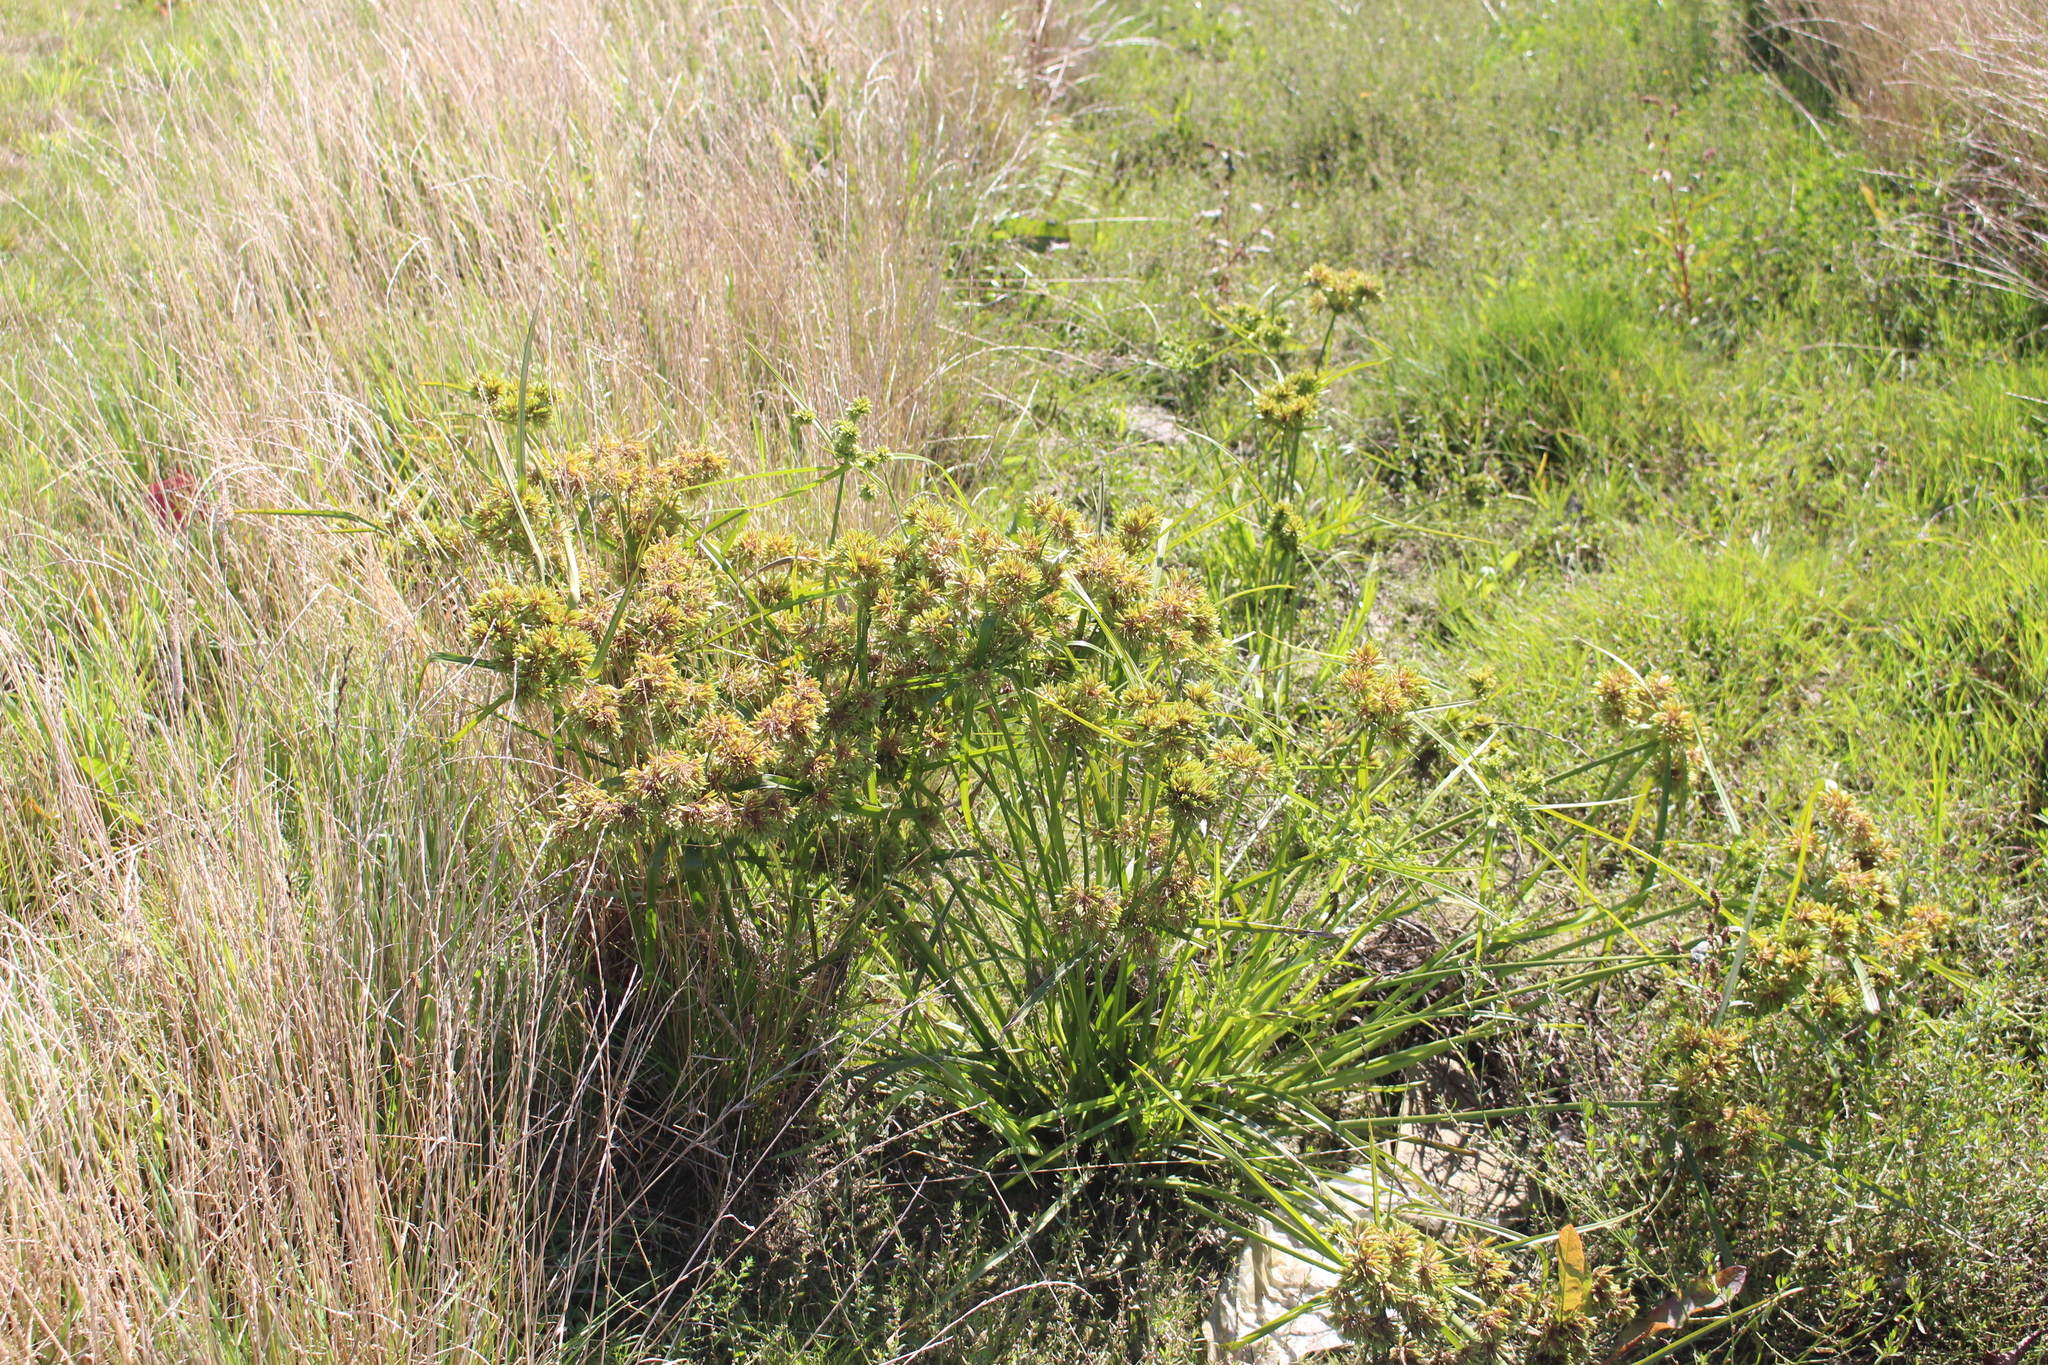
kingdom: Plantae
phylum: Tracheophyta
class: Liliopsida
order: Poales
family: Cyperaceae
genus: Cyperus
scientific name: Cyperus eragrostis
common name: Tall flatsedge
